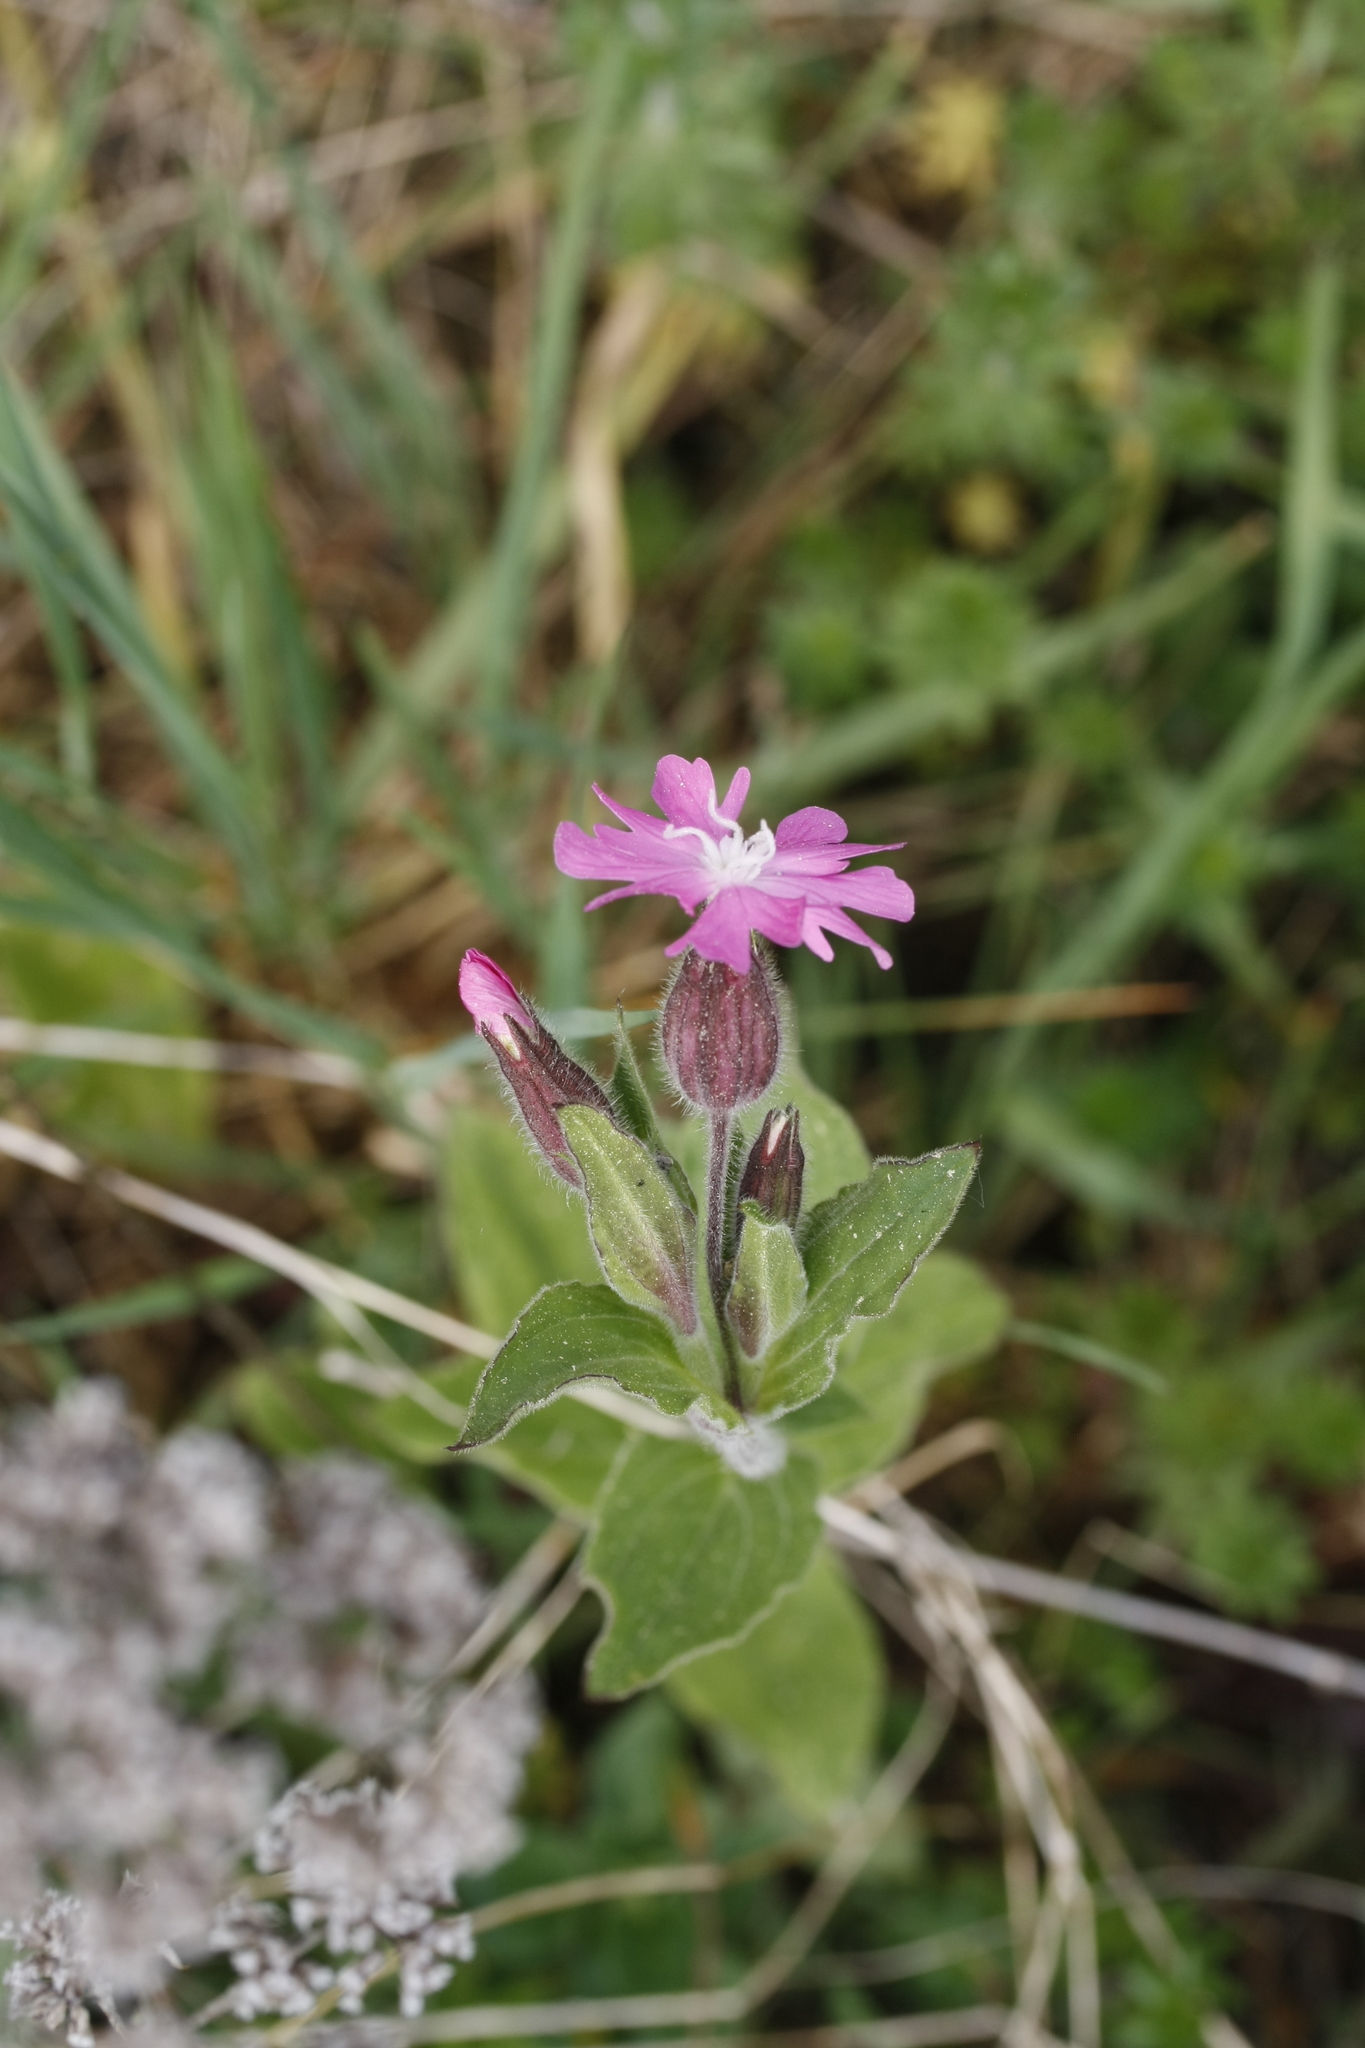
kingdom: Plantae
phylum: Tracheophyta
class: Magnoliopsida
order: Caryophyllales
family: Caryophyllaceae
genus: Silene
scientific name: Silene dioica
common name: Red campion
